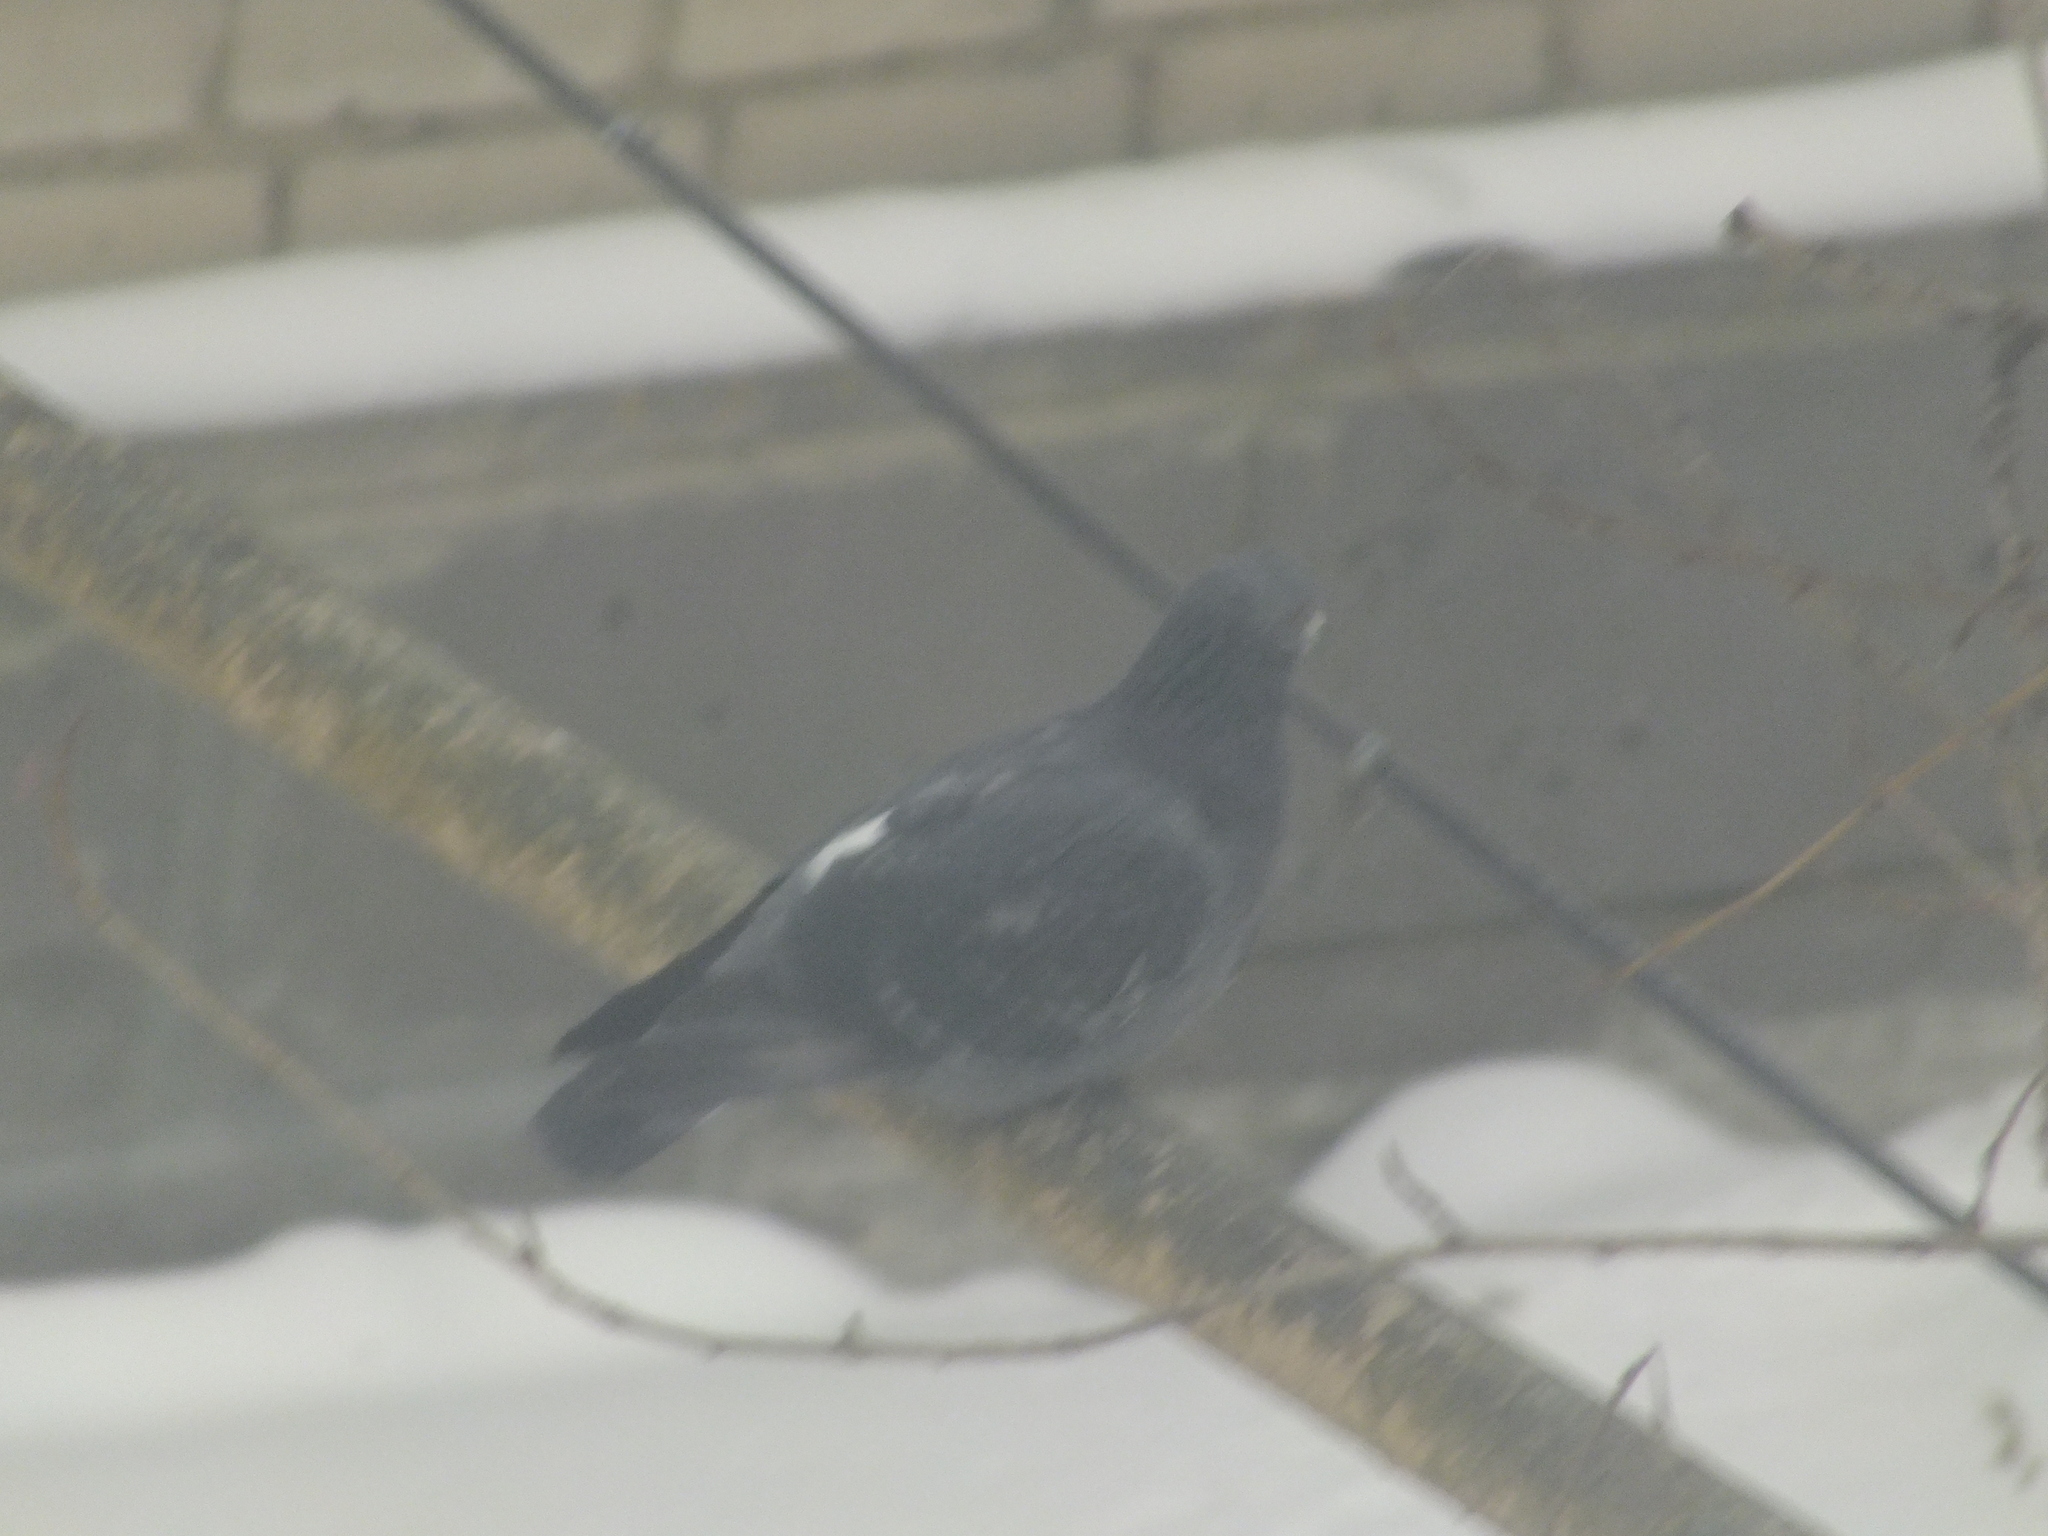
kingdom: Animalia
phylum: Chordata
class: Aves
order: Columbiformes
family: Columbidae
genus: Columba
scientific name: Columba livia
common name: Rock pigeon
